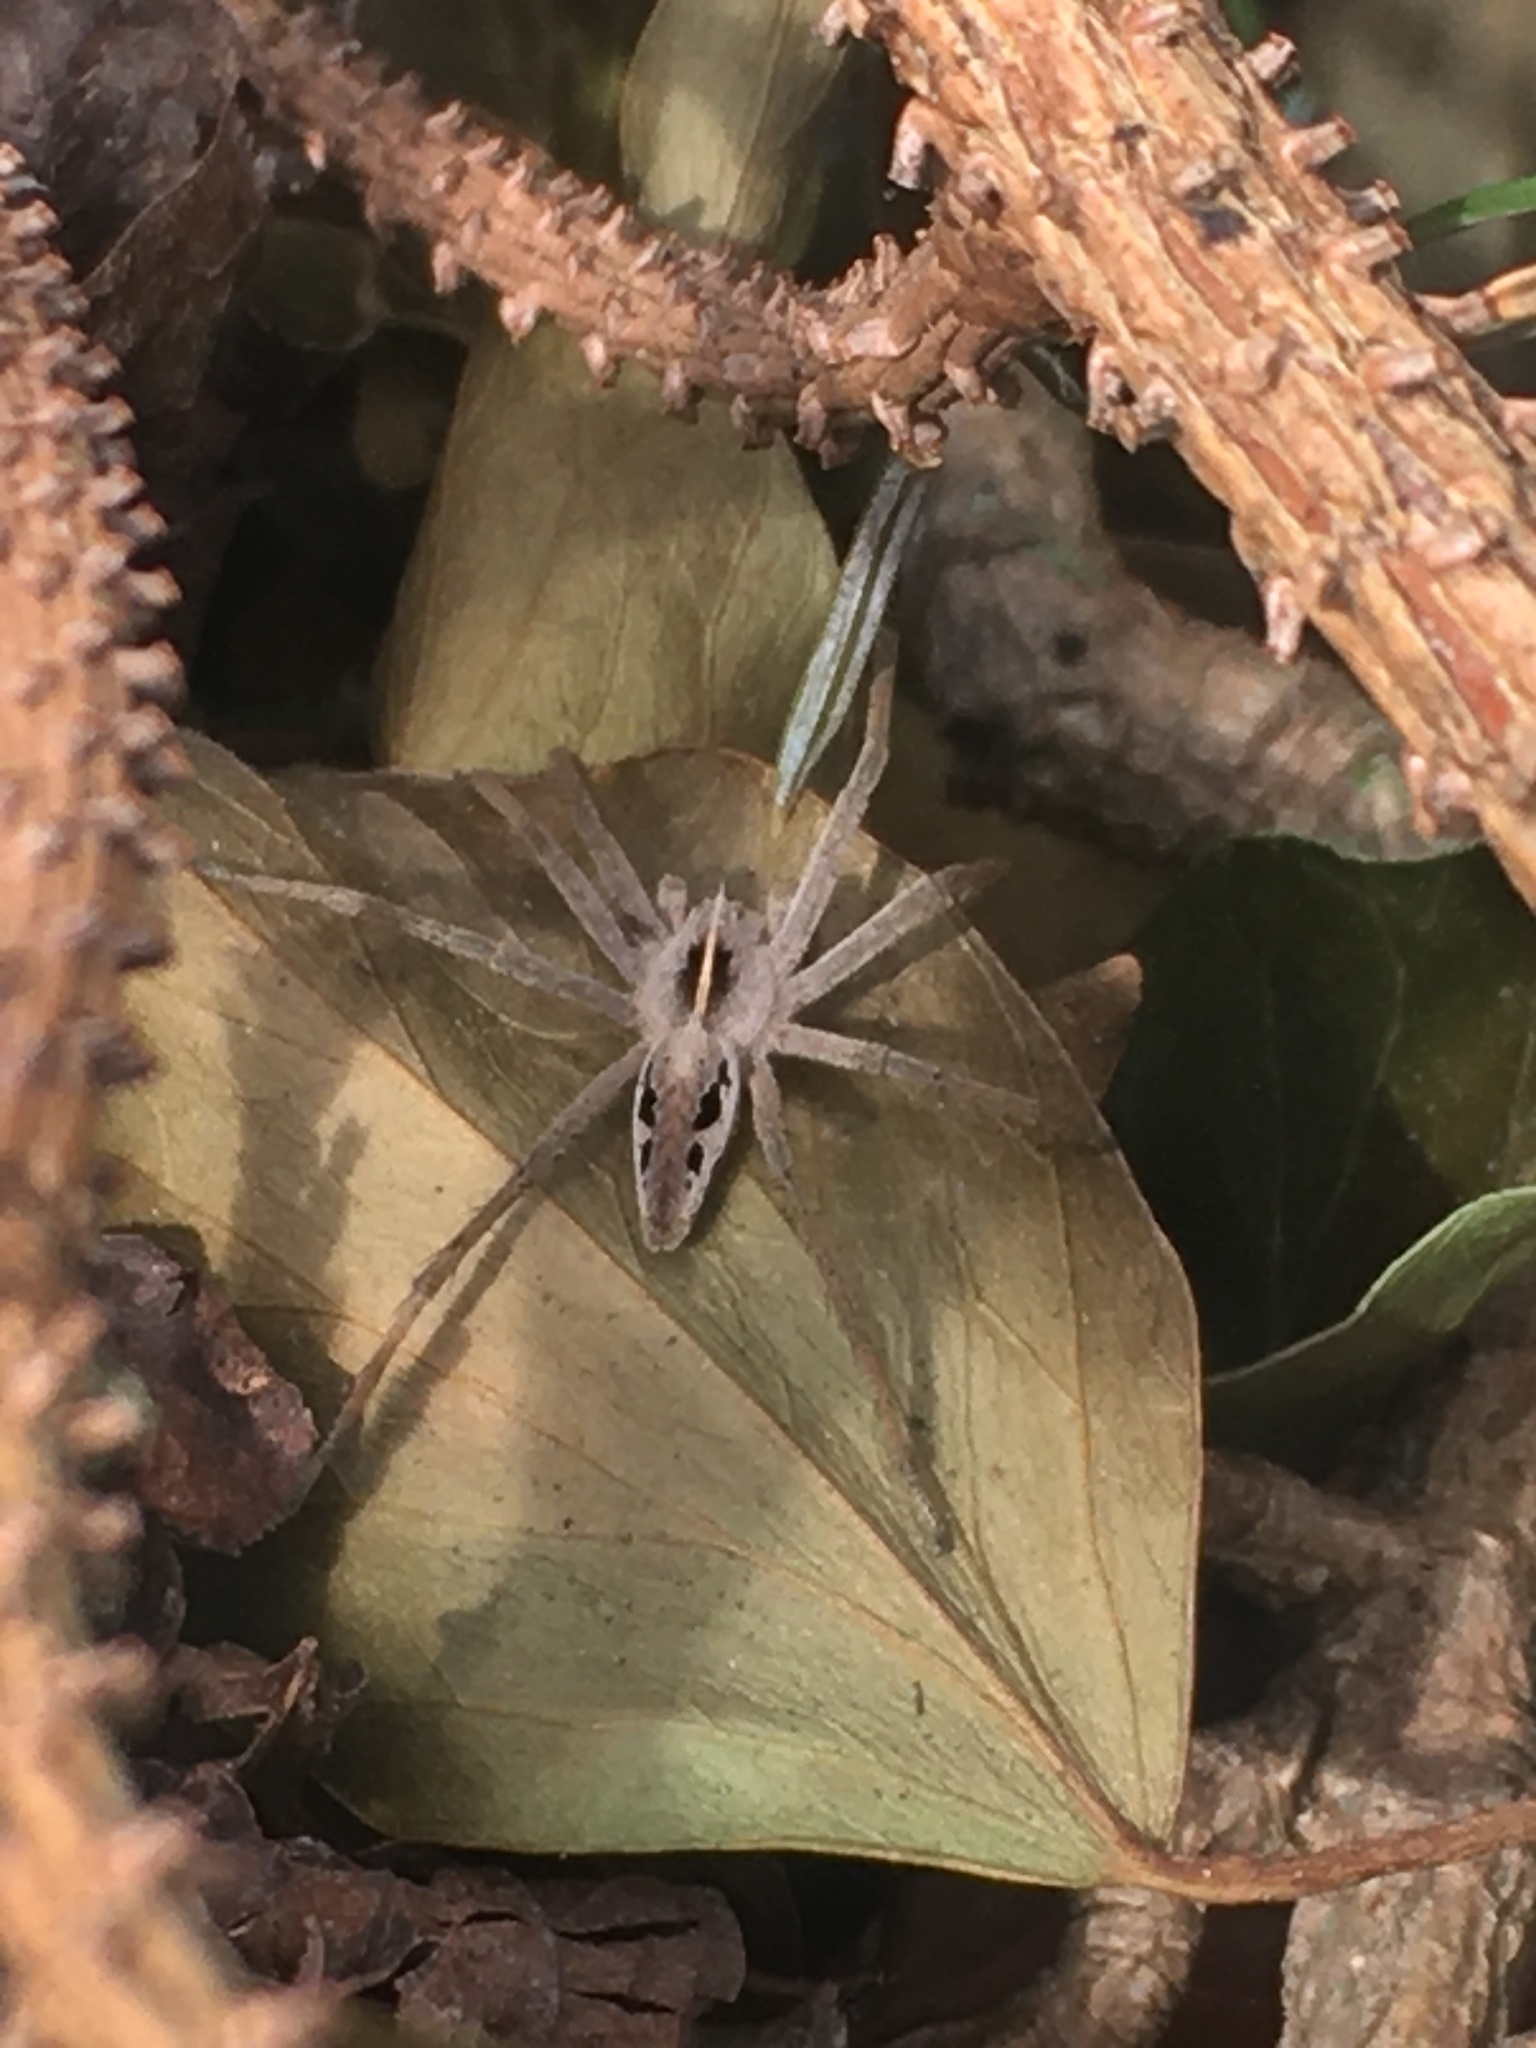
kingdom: Animalia
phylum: Arthropoda
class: Arachnida
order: Araneae
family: Pisauridae
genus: Pisaura
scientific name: Pisaura mirabilis
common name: Tent spider
